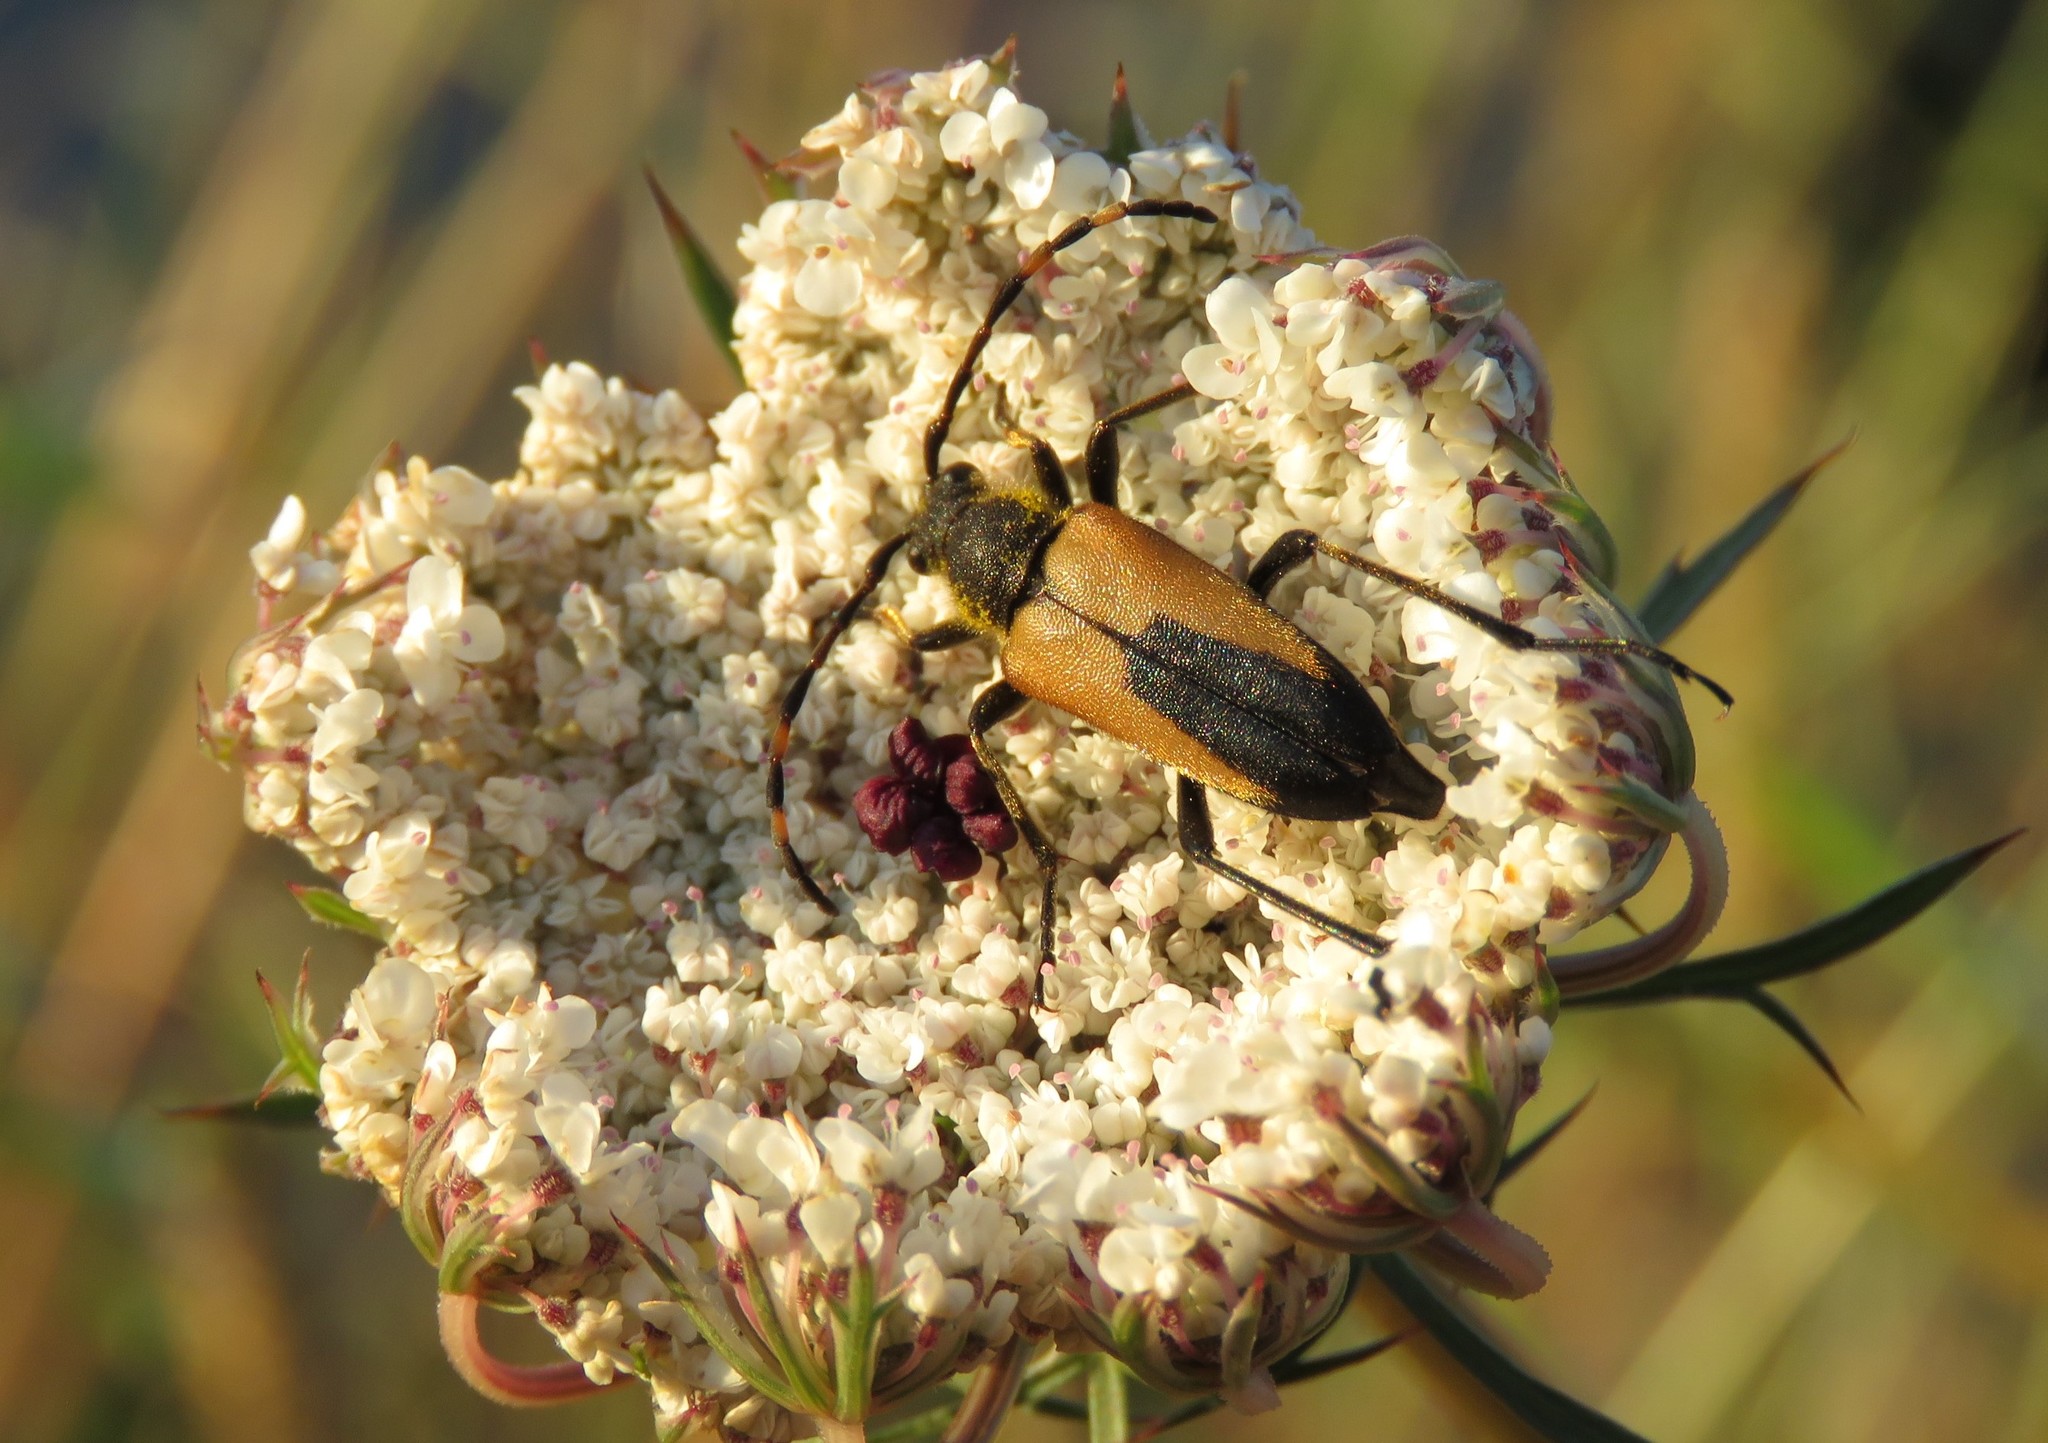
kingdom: Animalia
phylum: Arthropoda
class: Insecta
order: Coleoptera
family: Cerambycidae
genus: Stictoleptura
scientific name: Stictoleptura stragulata
